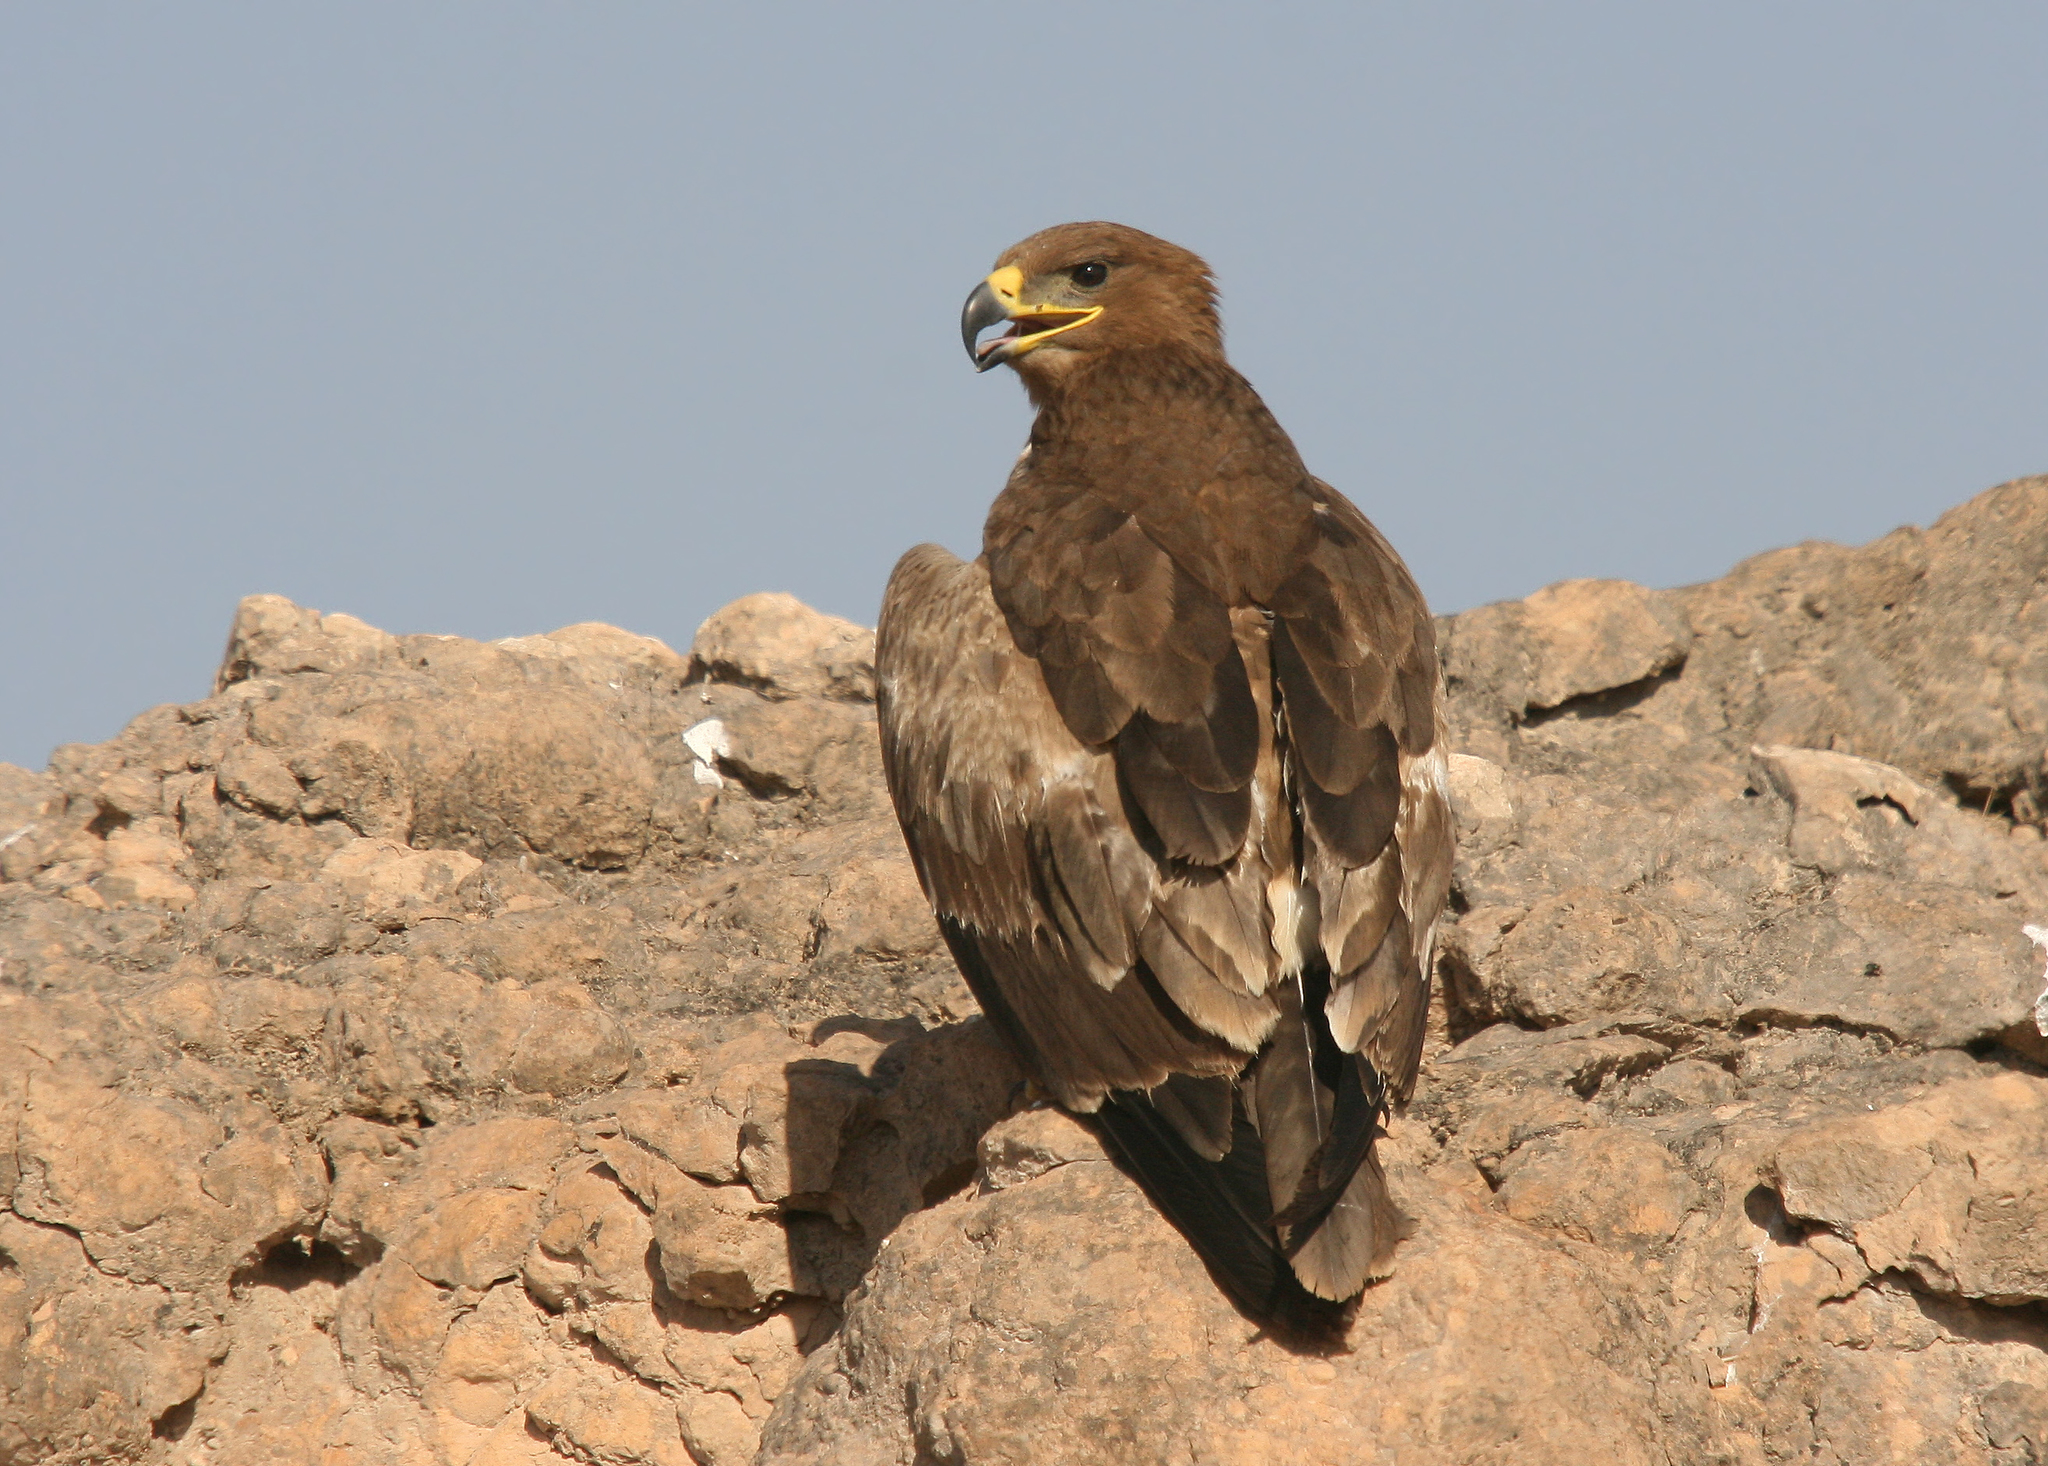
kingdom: Animalia
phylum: Chordata
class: Aves
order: Accipitriformes
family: Accipitridae
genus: Aquila
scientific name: Aquila nipalensis
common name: Steppe eagle
